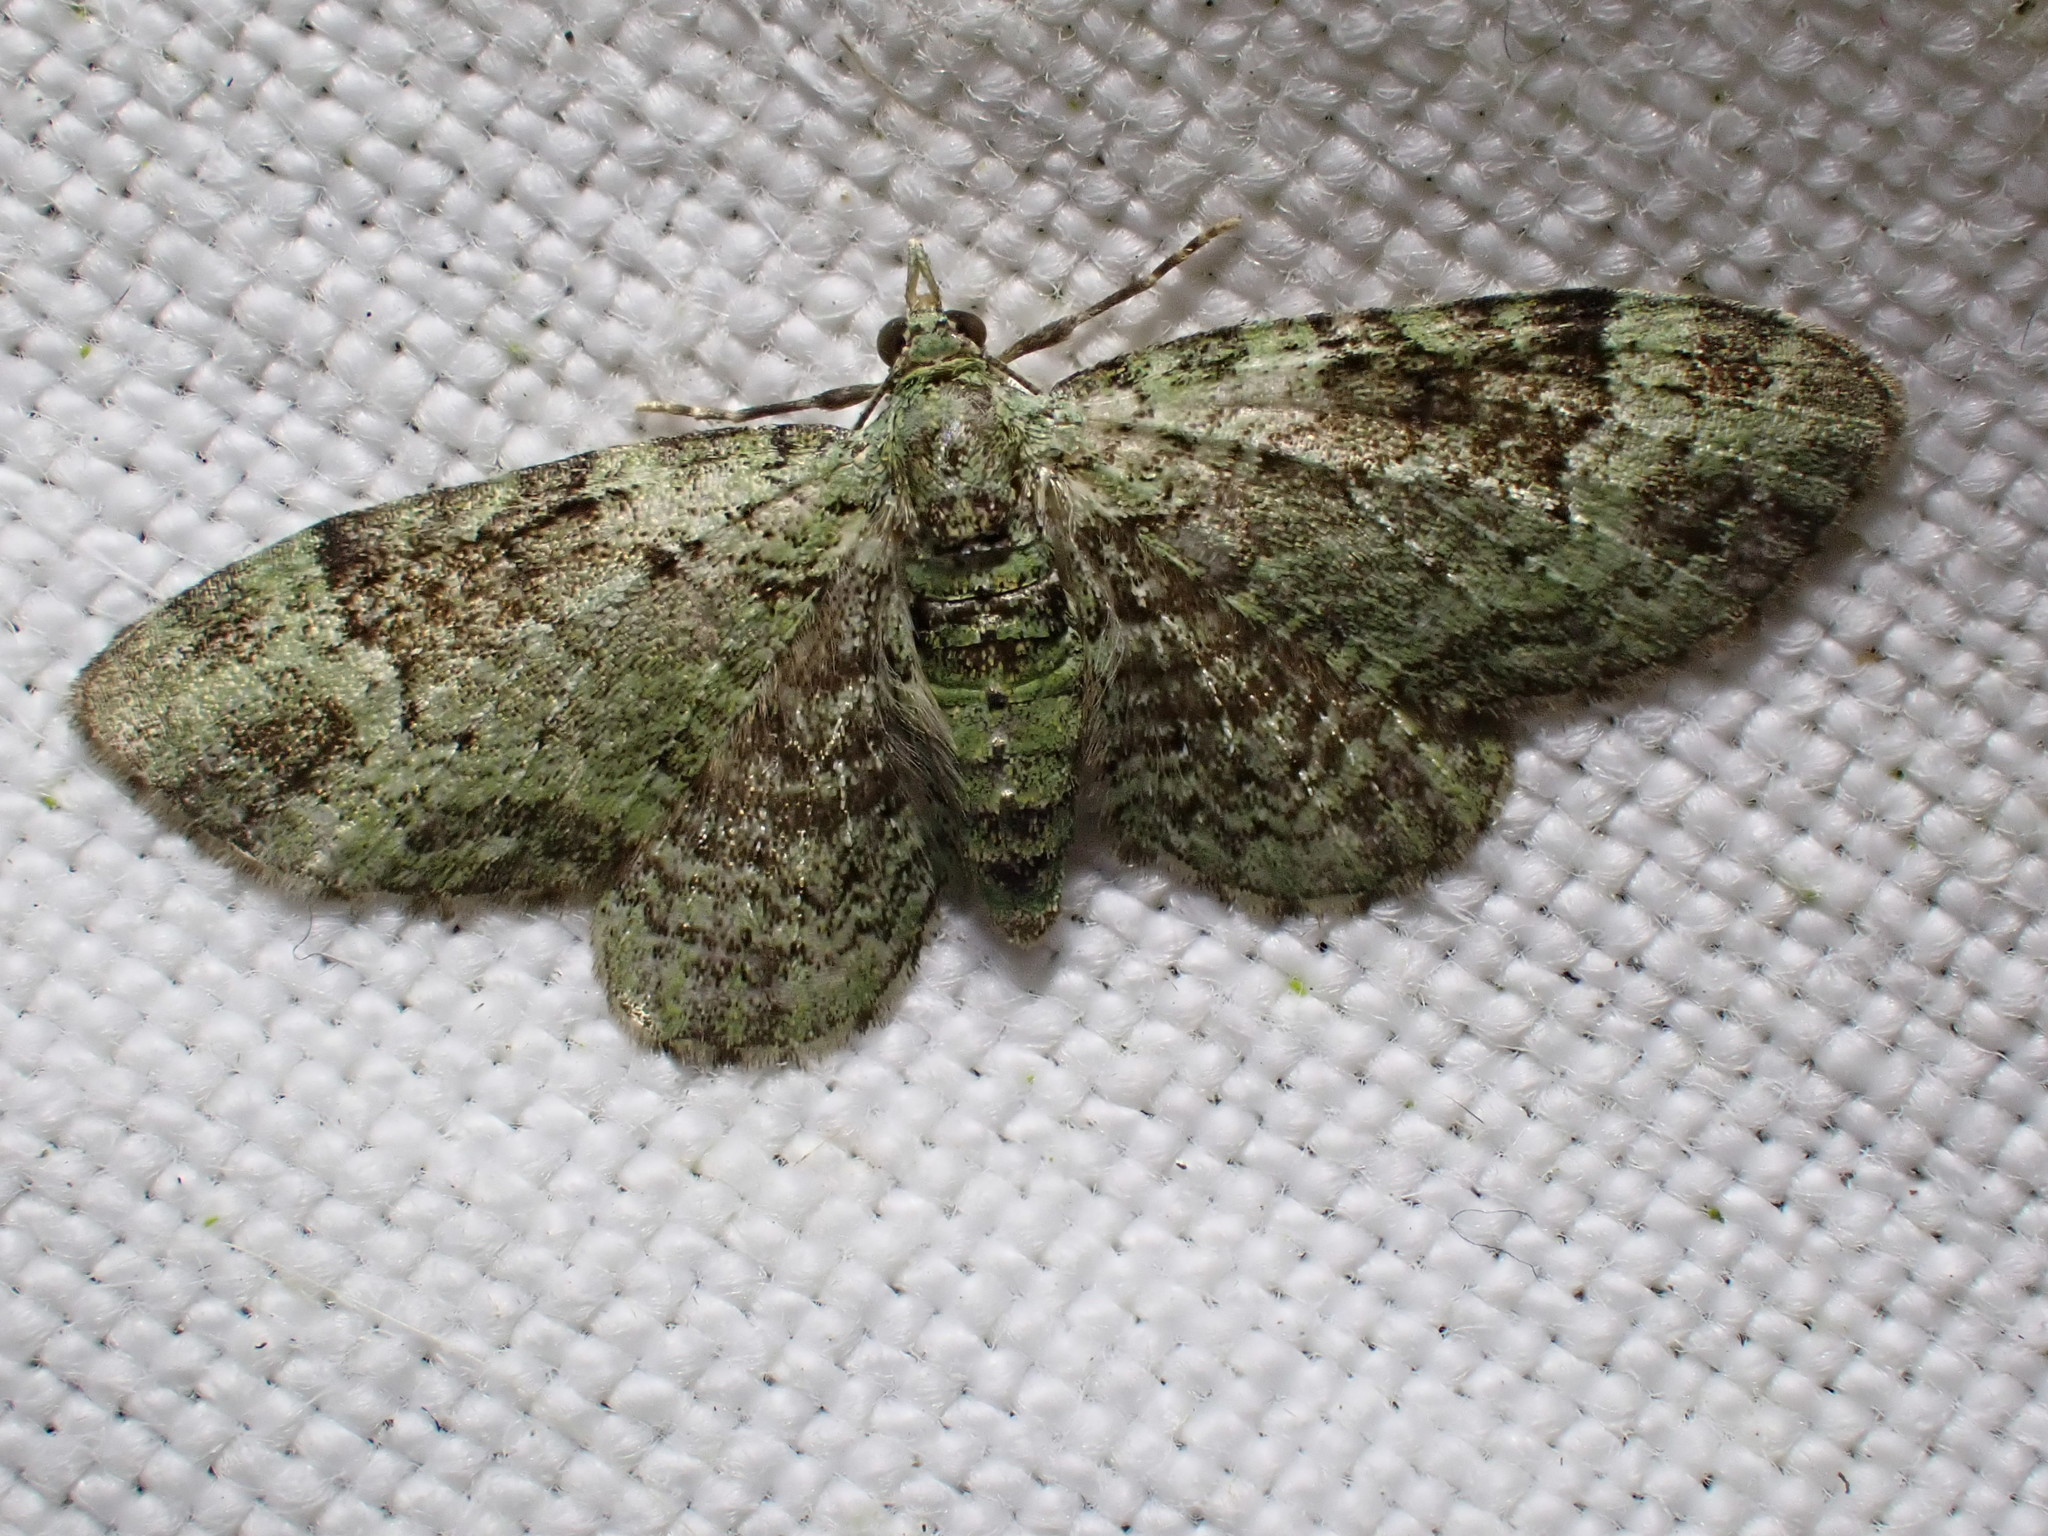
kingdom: Animalia
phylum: Arthropoda
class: Insecta
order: Lepidoptera
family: Geometridae
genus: Pasiphila
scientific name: Pasiphila rectangulata
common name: Green pug
